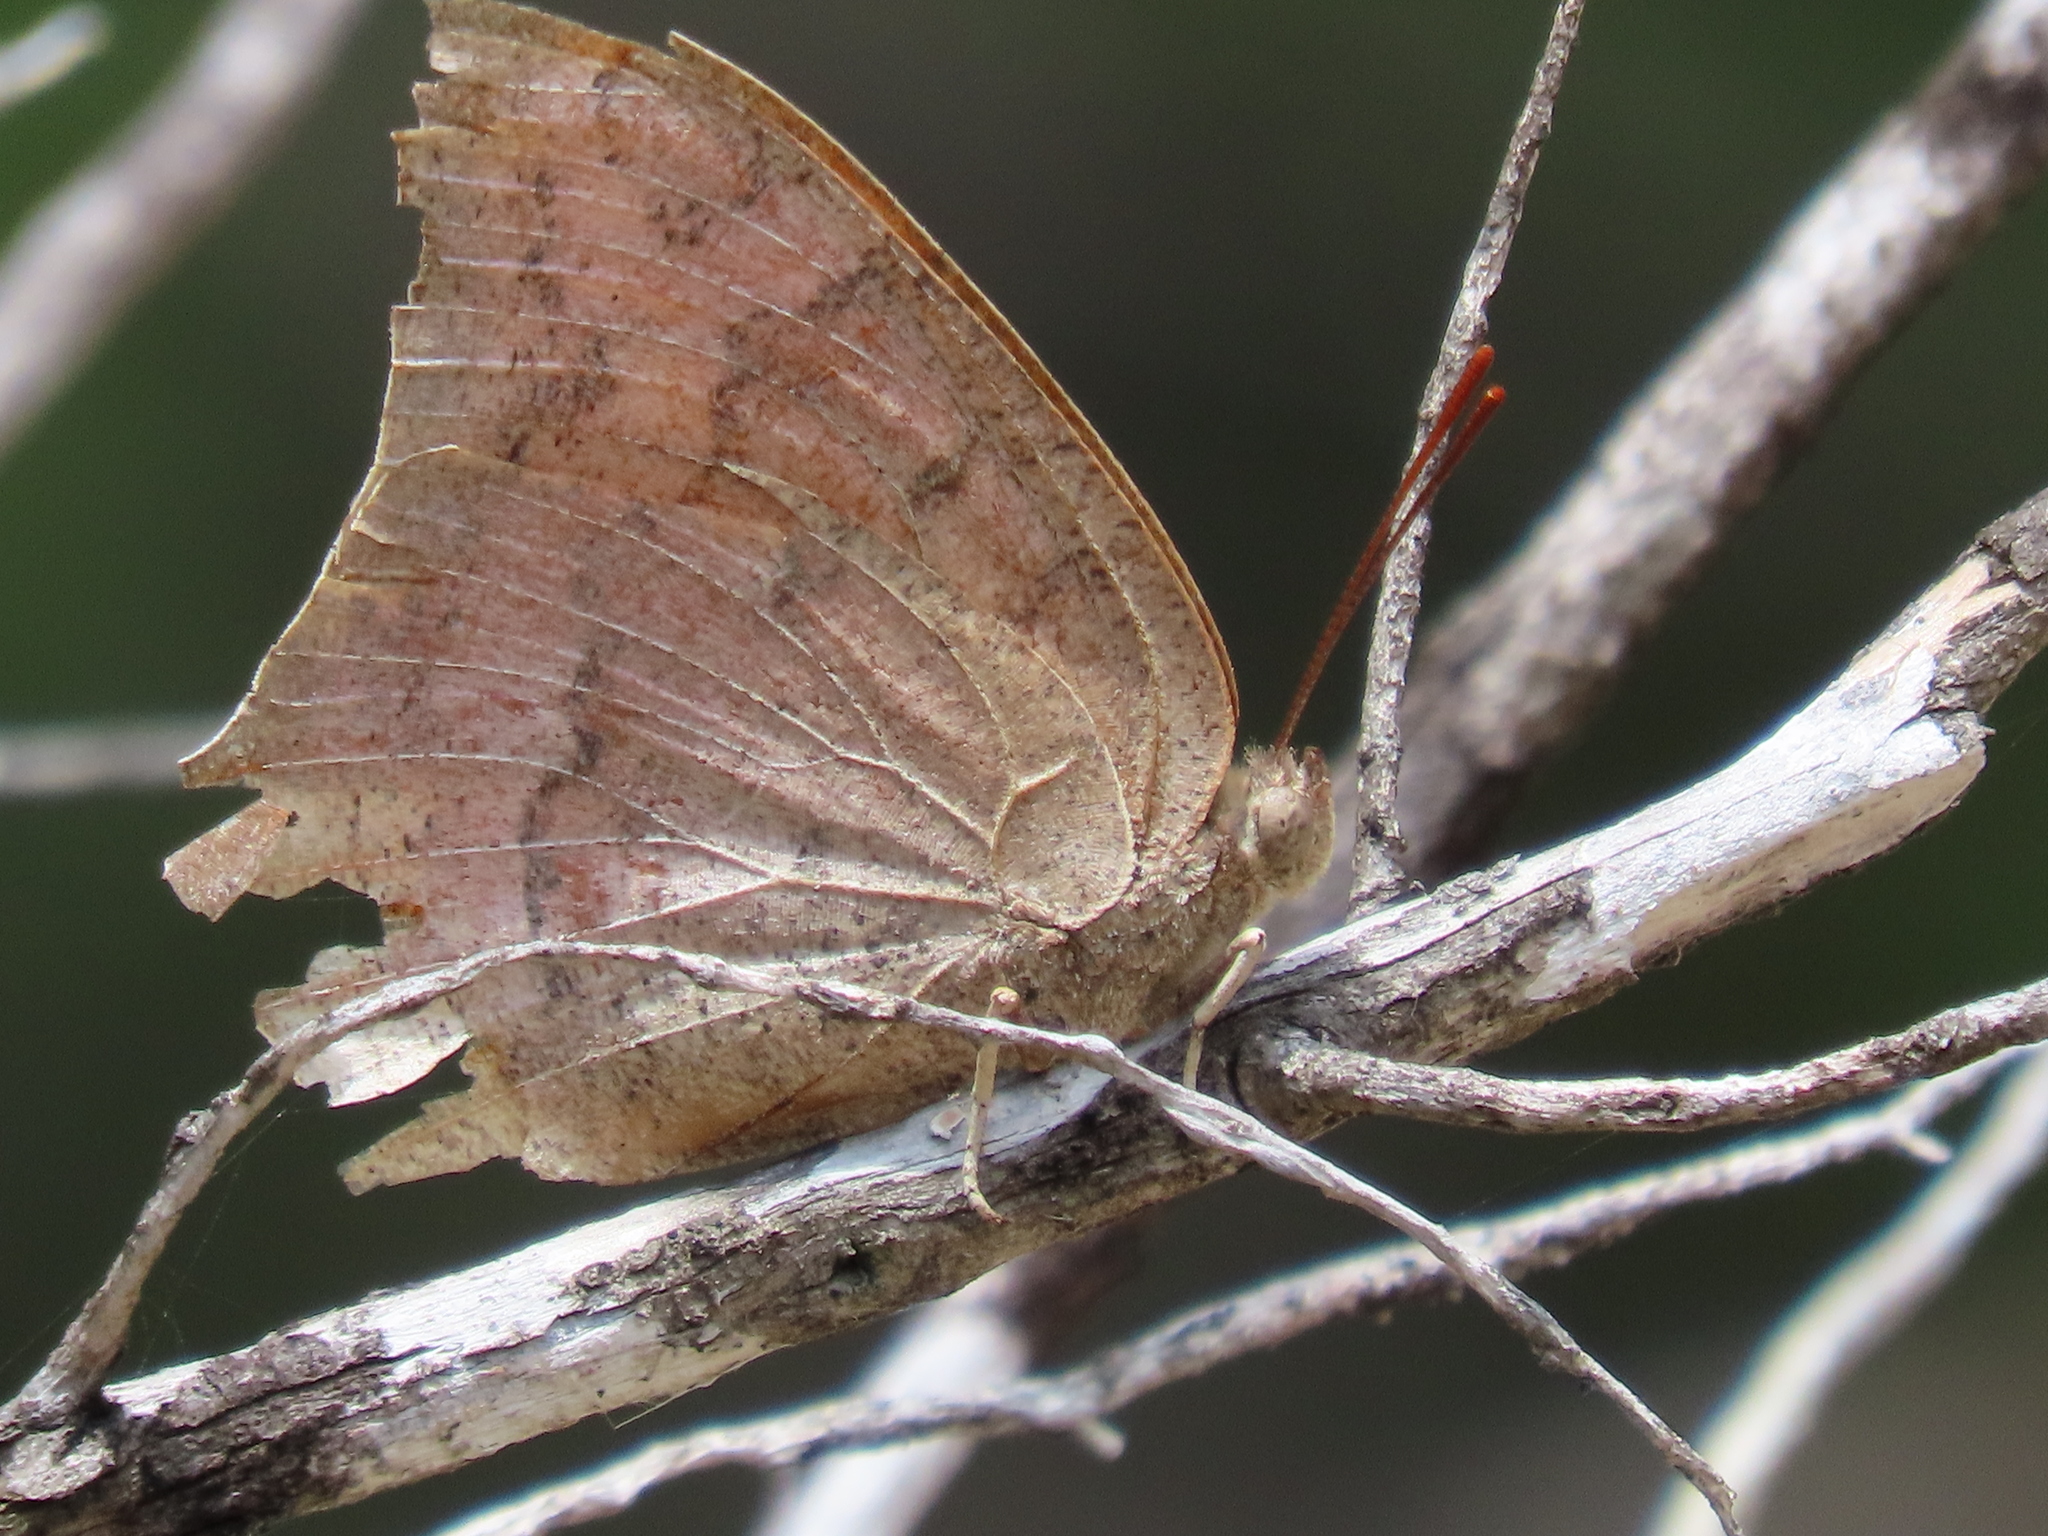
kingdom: Animalia
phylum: Arthropoda
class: Insecta
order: Lepidoptera
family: Nymphalidae
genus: Anaea
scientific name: Anaea andria
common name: Goatweed leafwing
